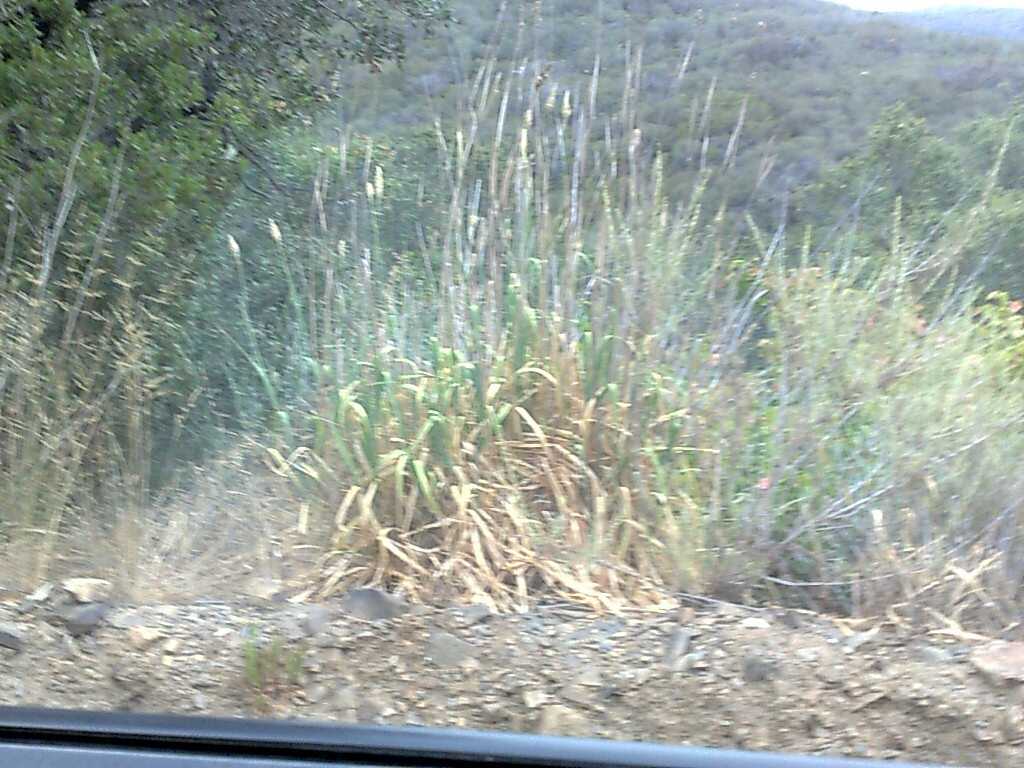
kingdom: Plantae
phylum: Tracheophyta
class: Liliopsida
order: Poales
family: Poaceae
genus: Phalaris
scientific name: Phalaris aquatica
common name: Bulbous canary-grass
